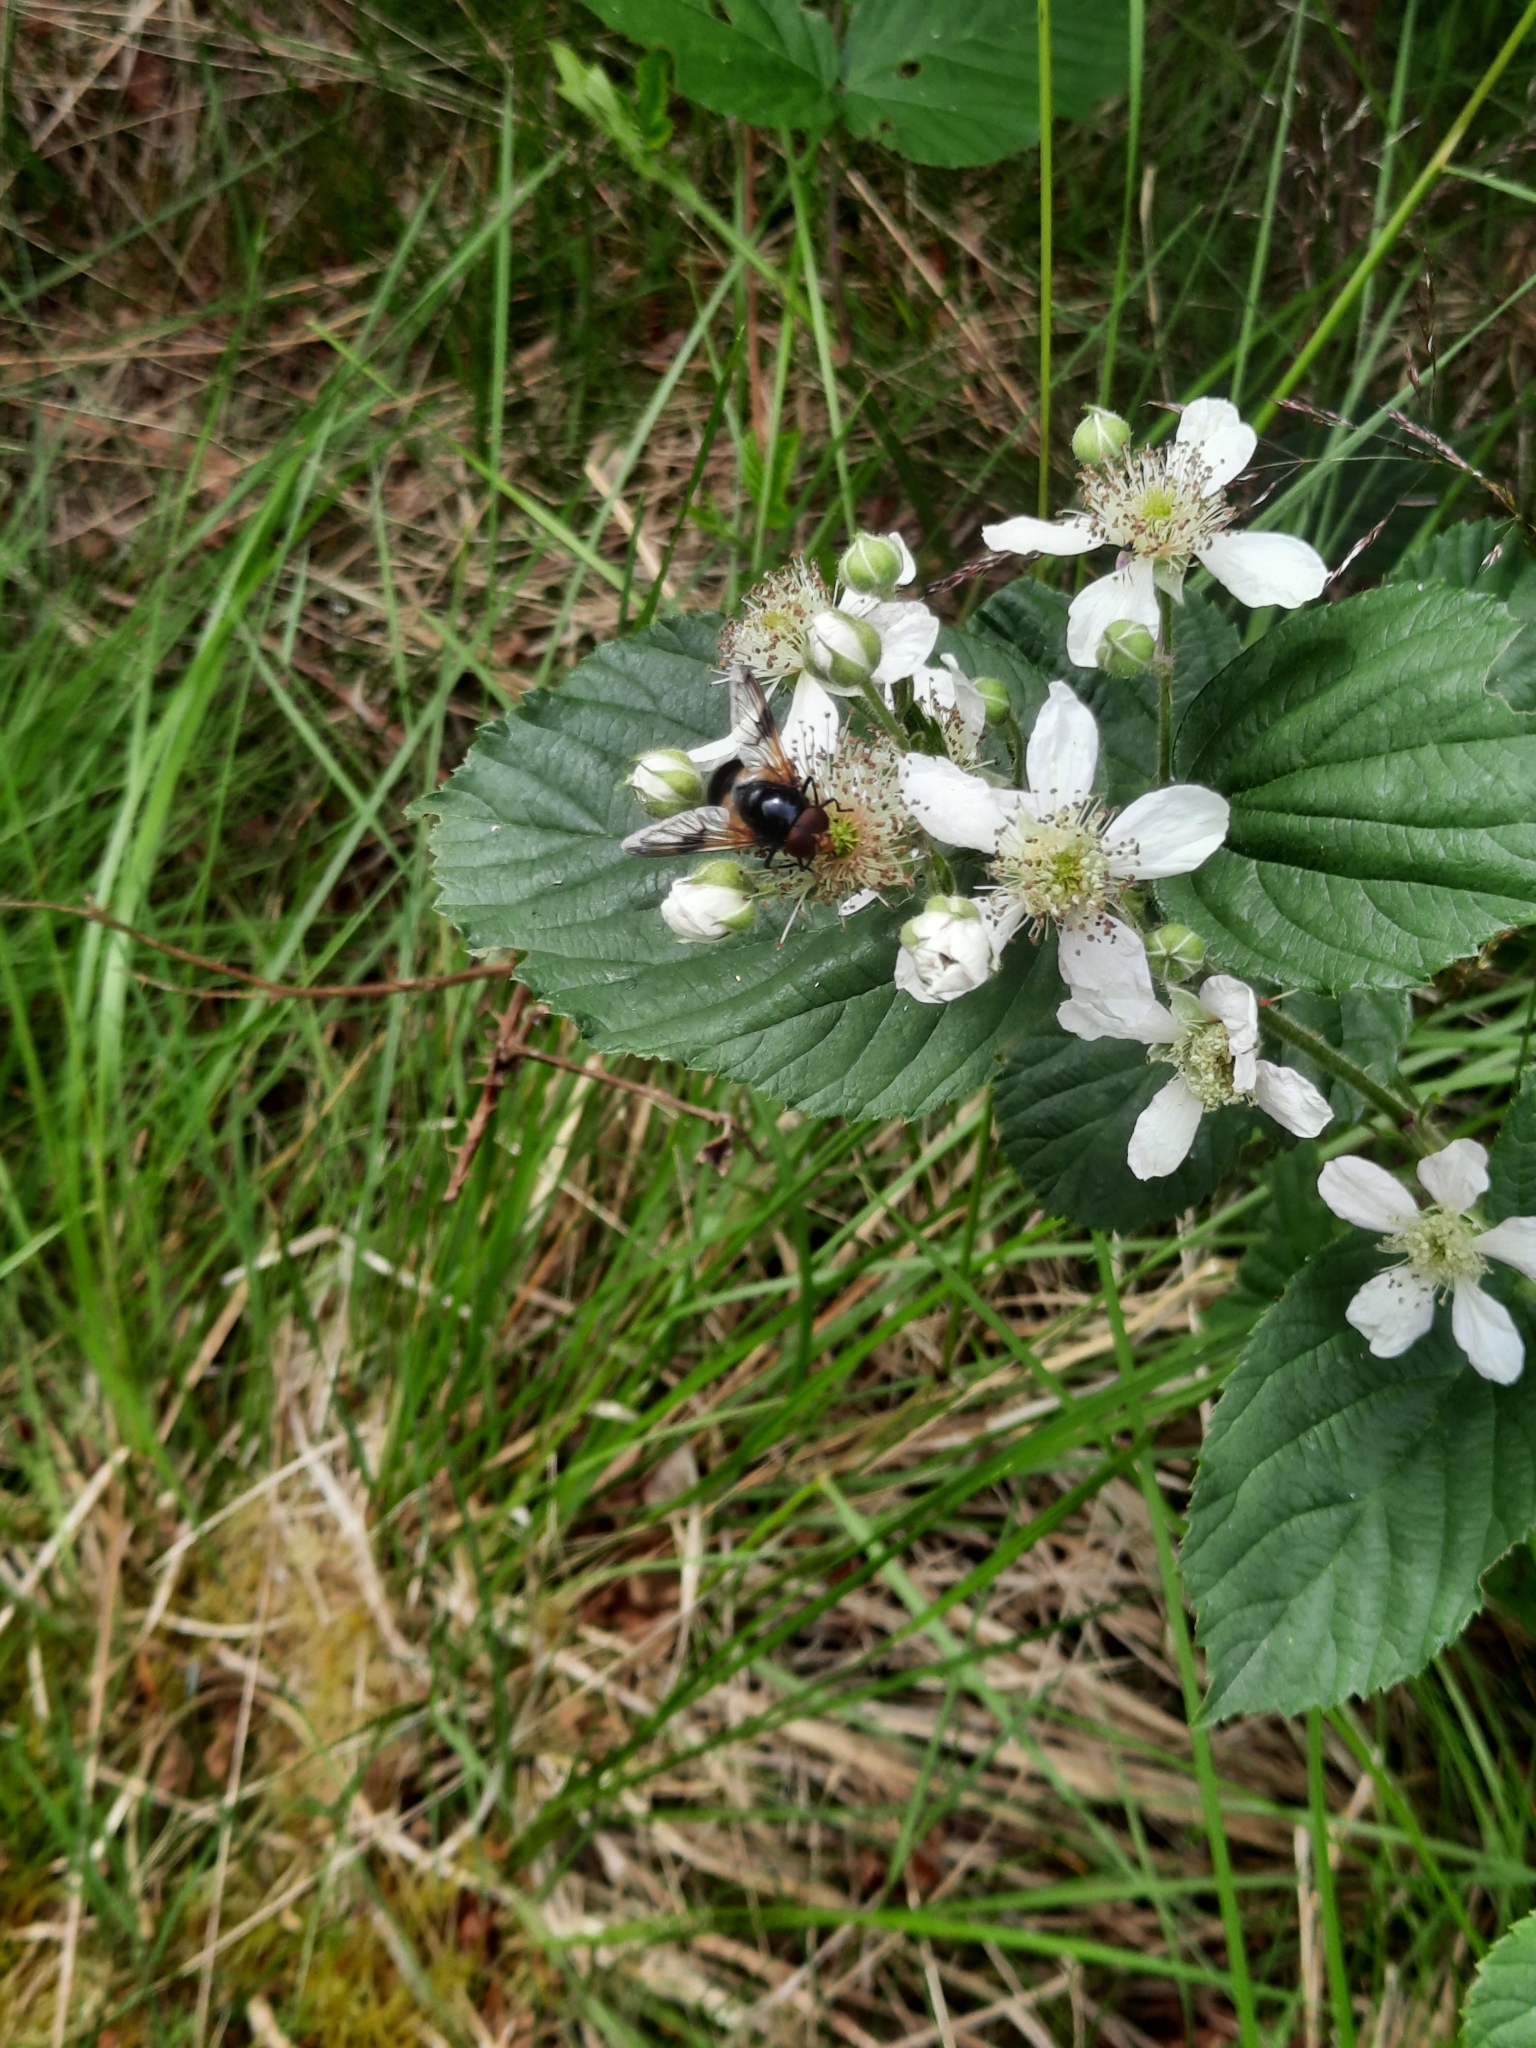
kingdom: Animalia
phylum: Arthropoda
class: Insecta
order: Diptera
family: Syrphidae
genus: Volucella
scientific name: Volucella pellucens
